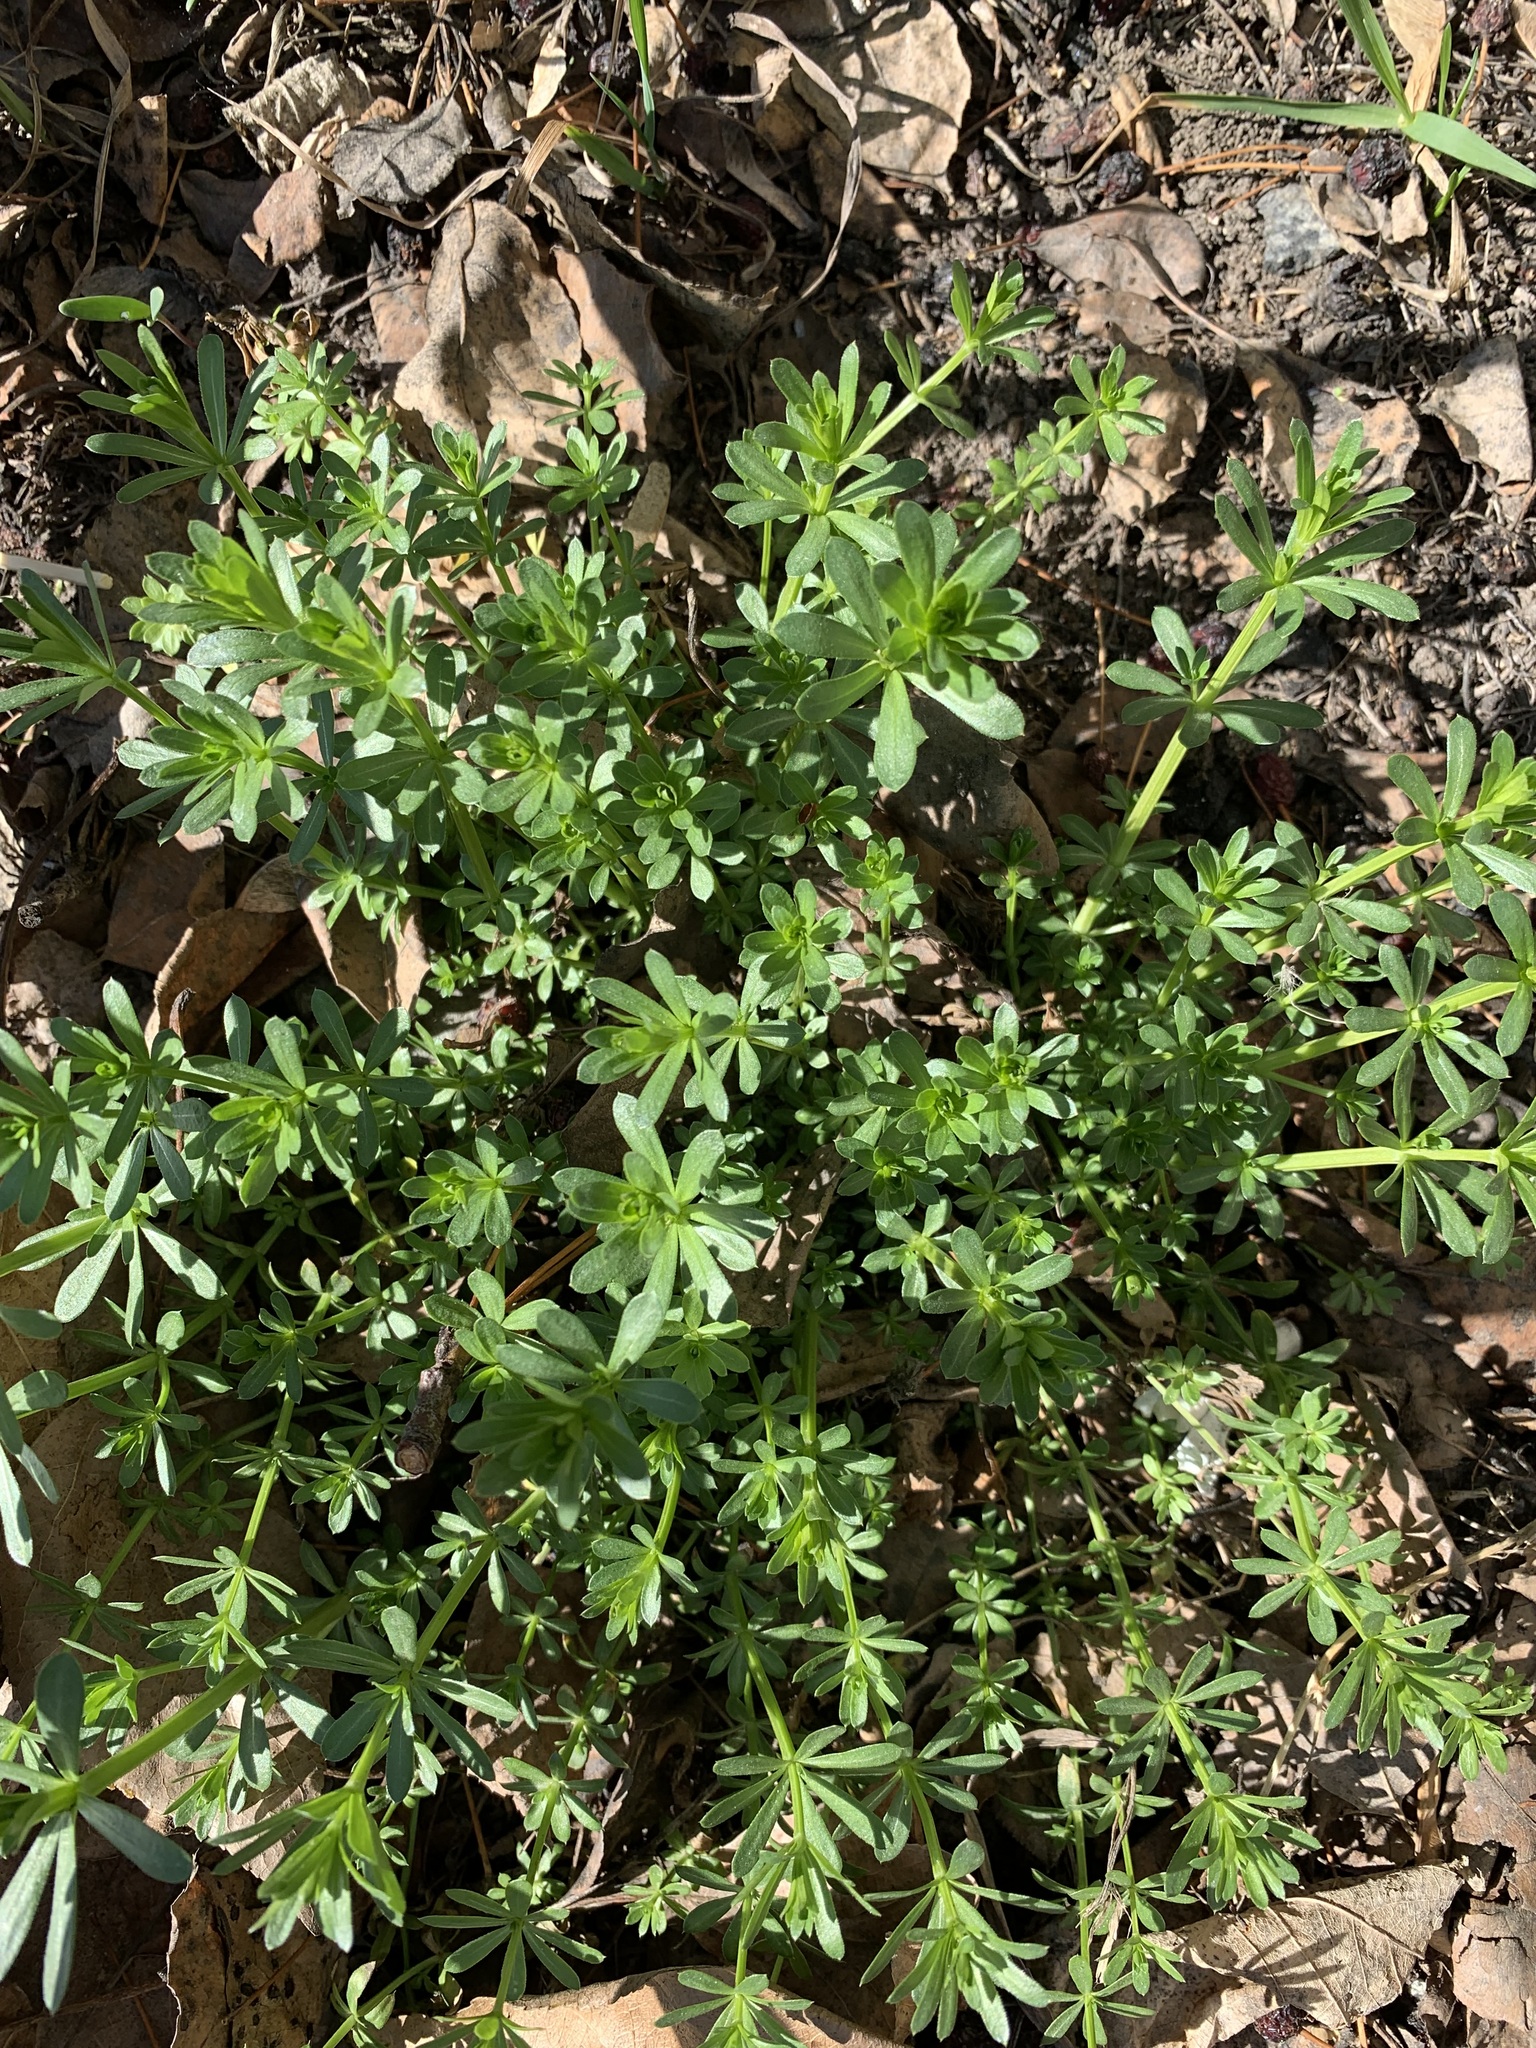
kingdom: Plantae
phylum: Tracheophyta
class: Magnoliopsida
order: Gentianales
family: Rubiaceae
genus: Galium
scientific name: Galium mollugo
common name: Hedge bedstraw
